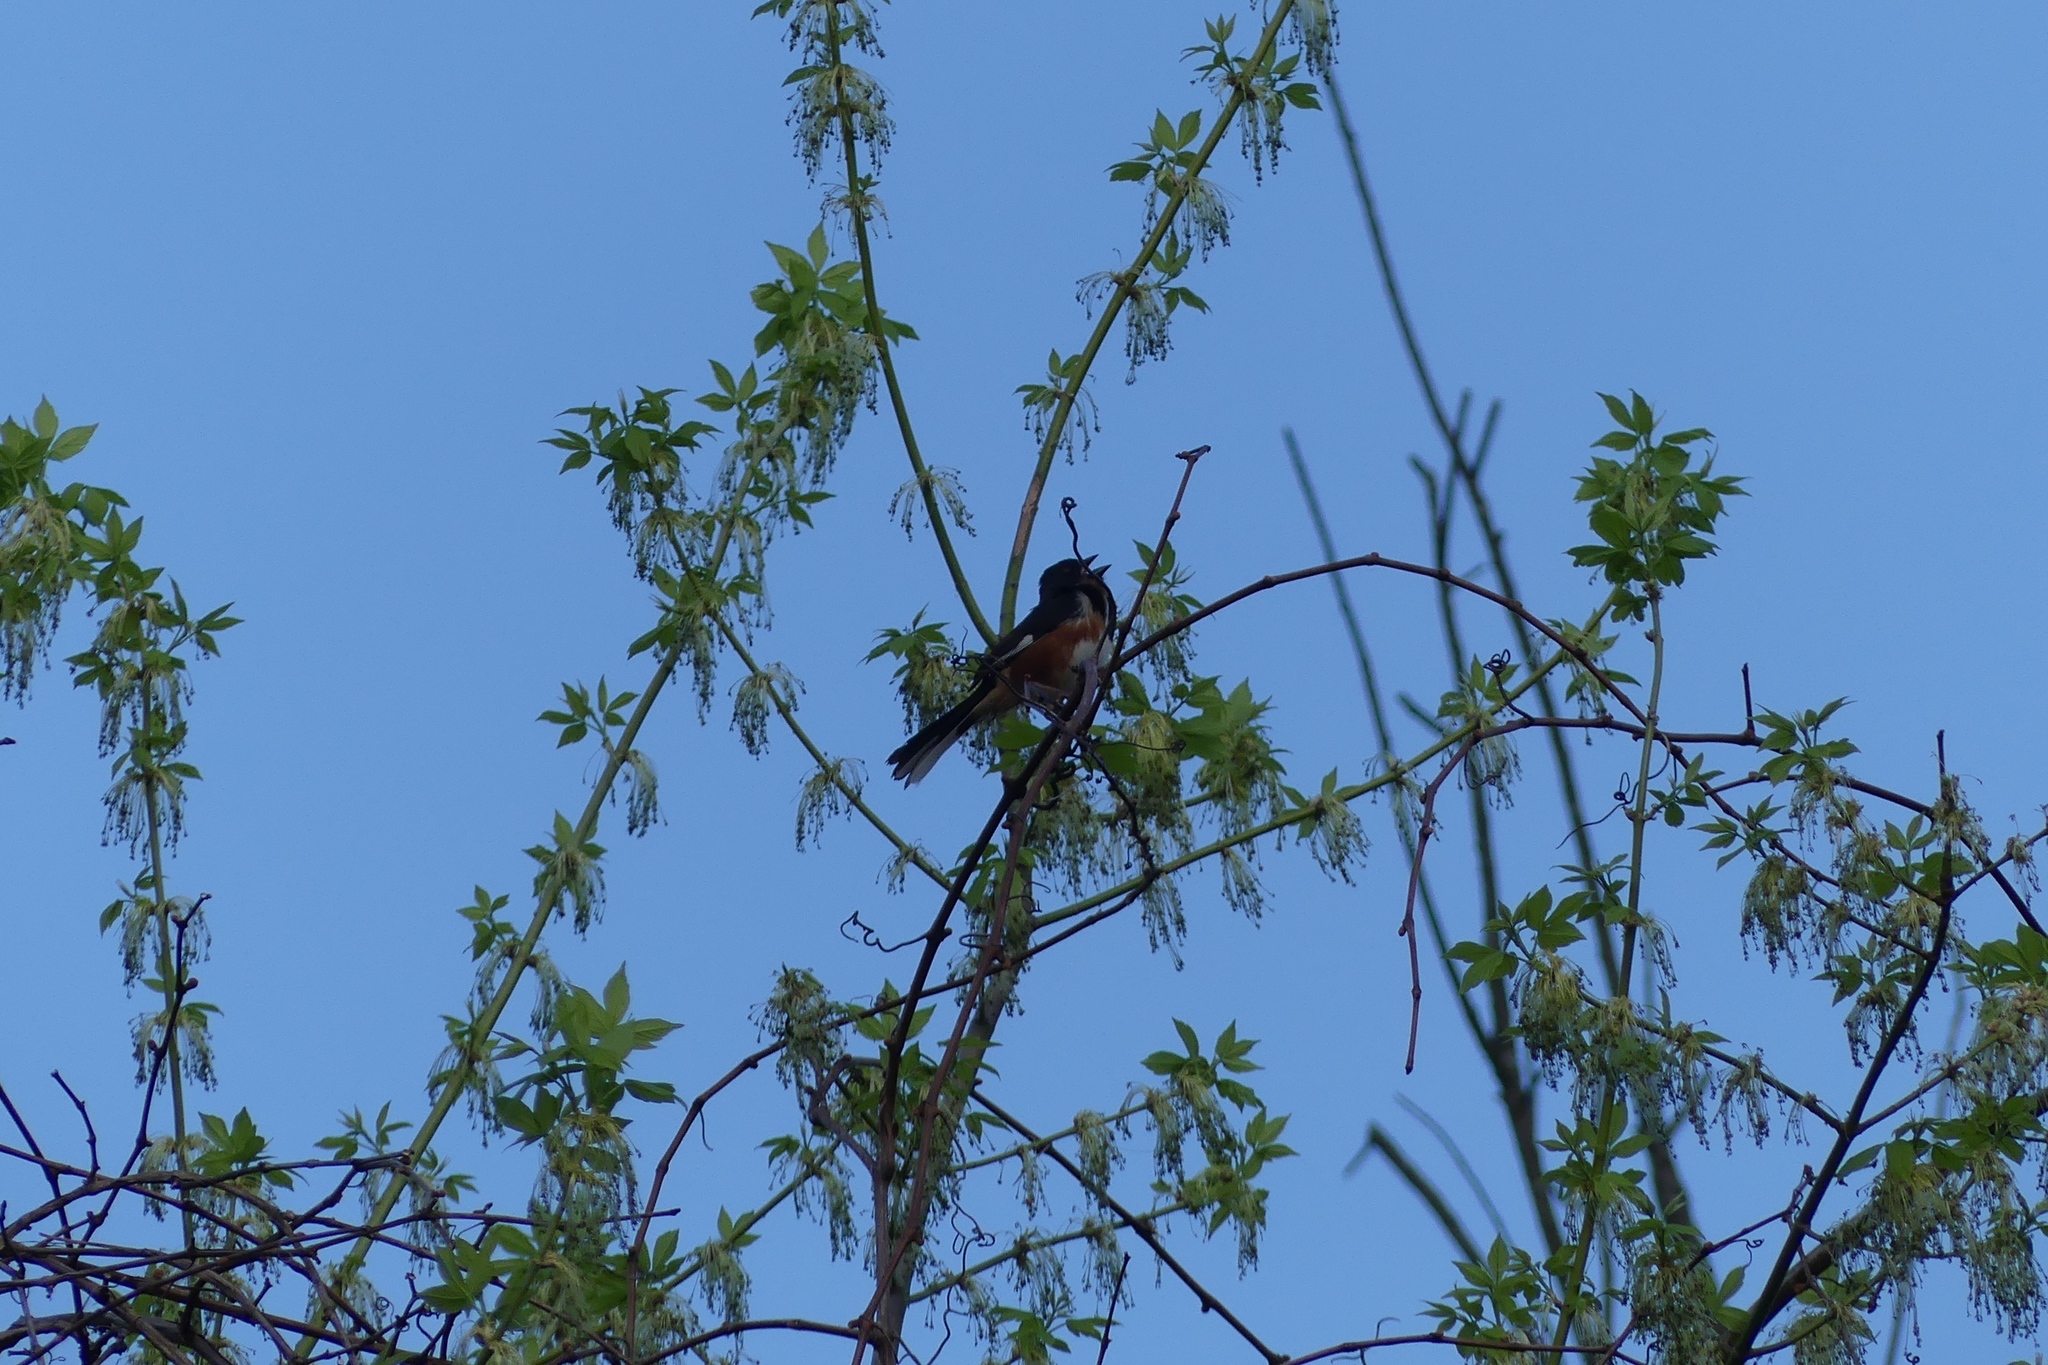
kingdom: Animalia
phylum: Chordata
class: Aves
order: Passeriformes
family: Passerellidae
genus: Pipilo
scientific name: Pipilo erythrophthalmus
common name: Eastern towhee
